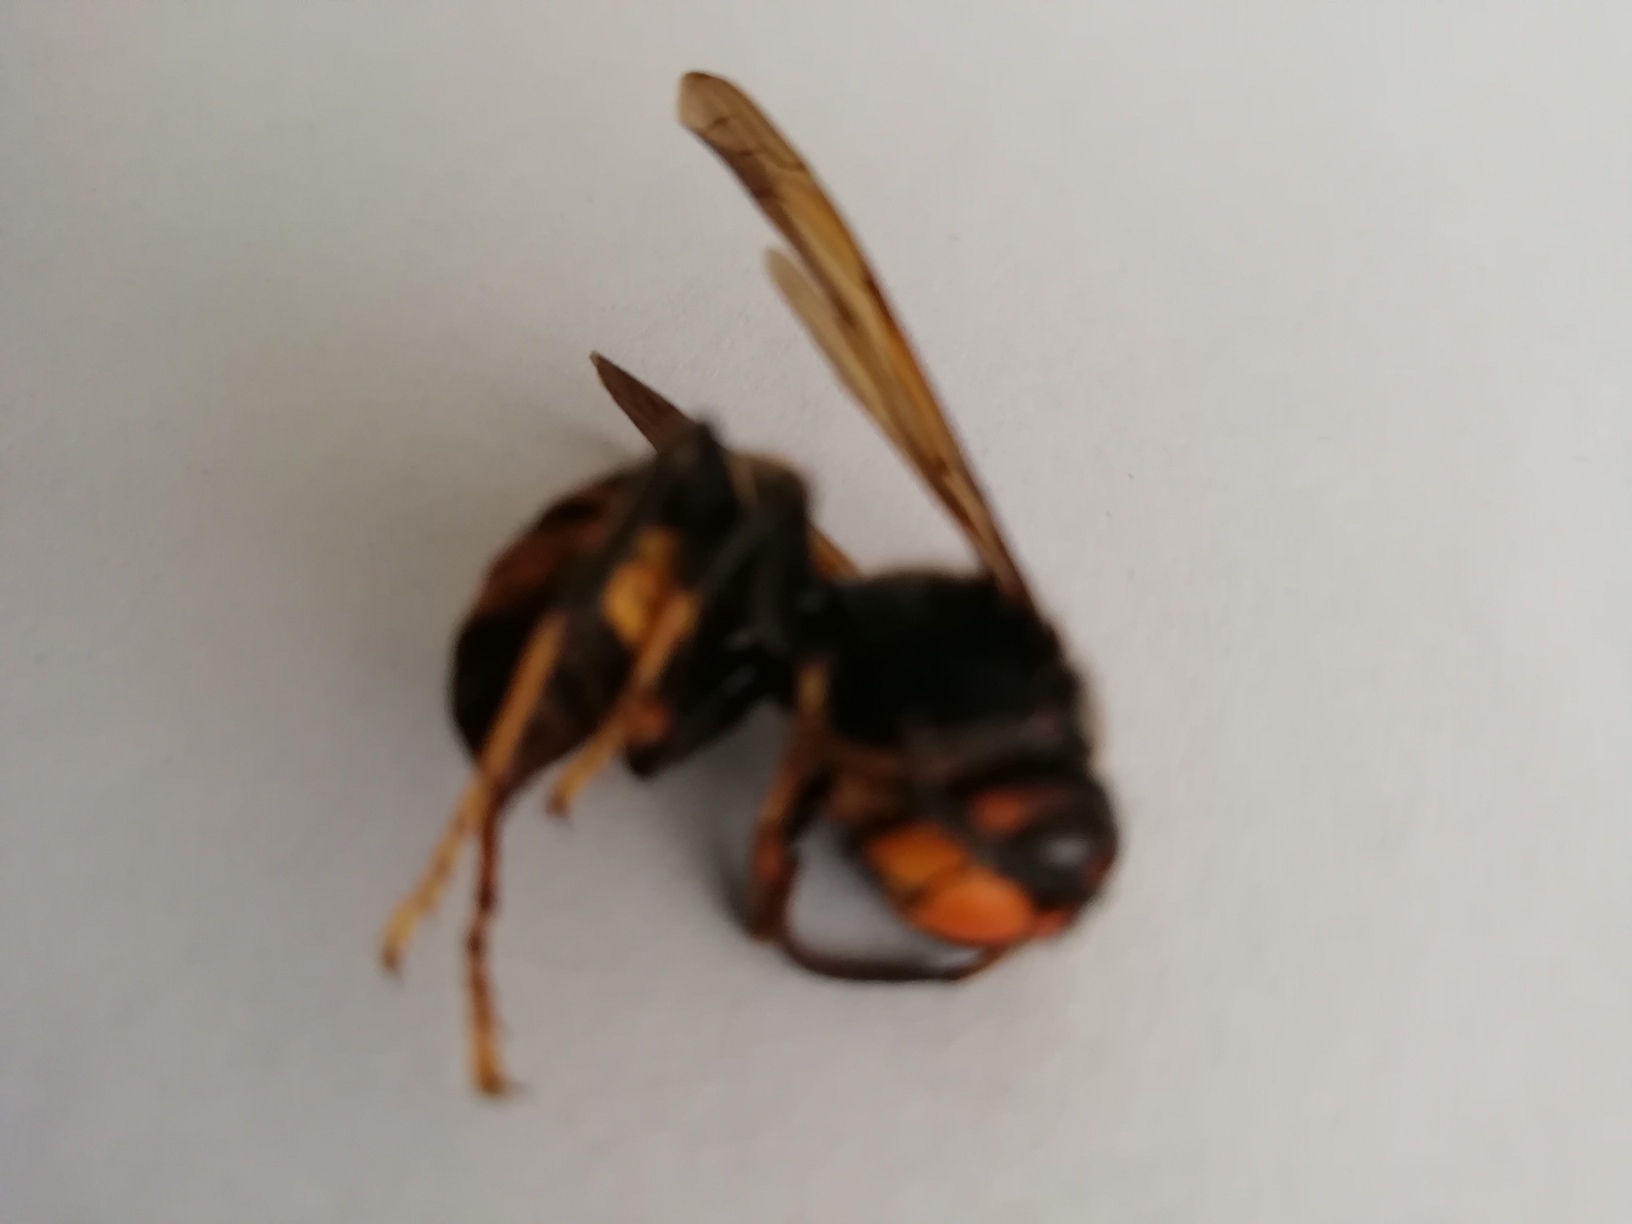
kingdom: Animalia
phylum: Arthropoda
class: Insecta
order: Hymenoptera
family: Vespidae
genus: Vespa
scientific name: Vespa velutina
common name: Asian hornet
